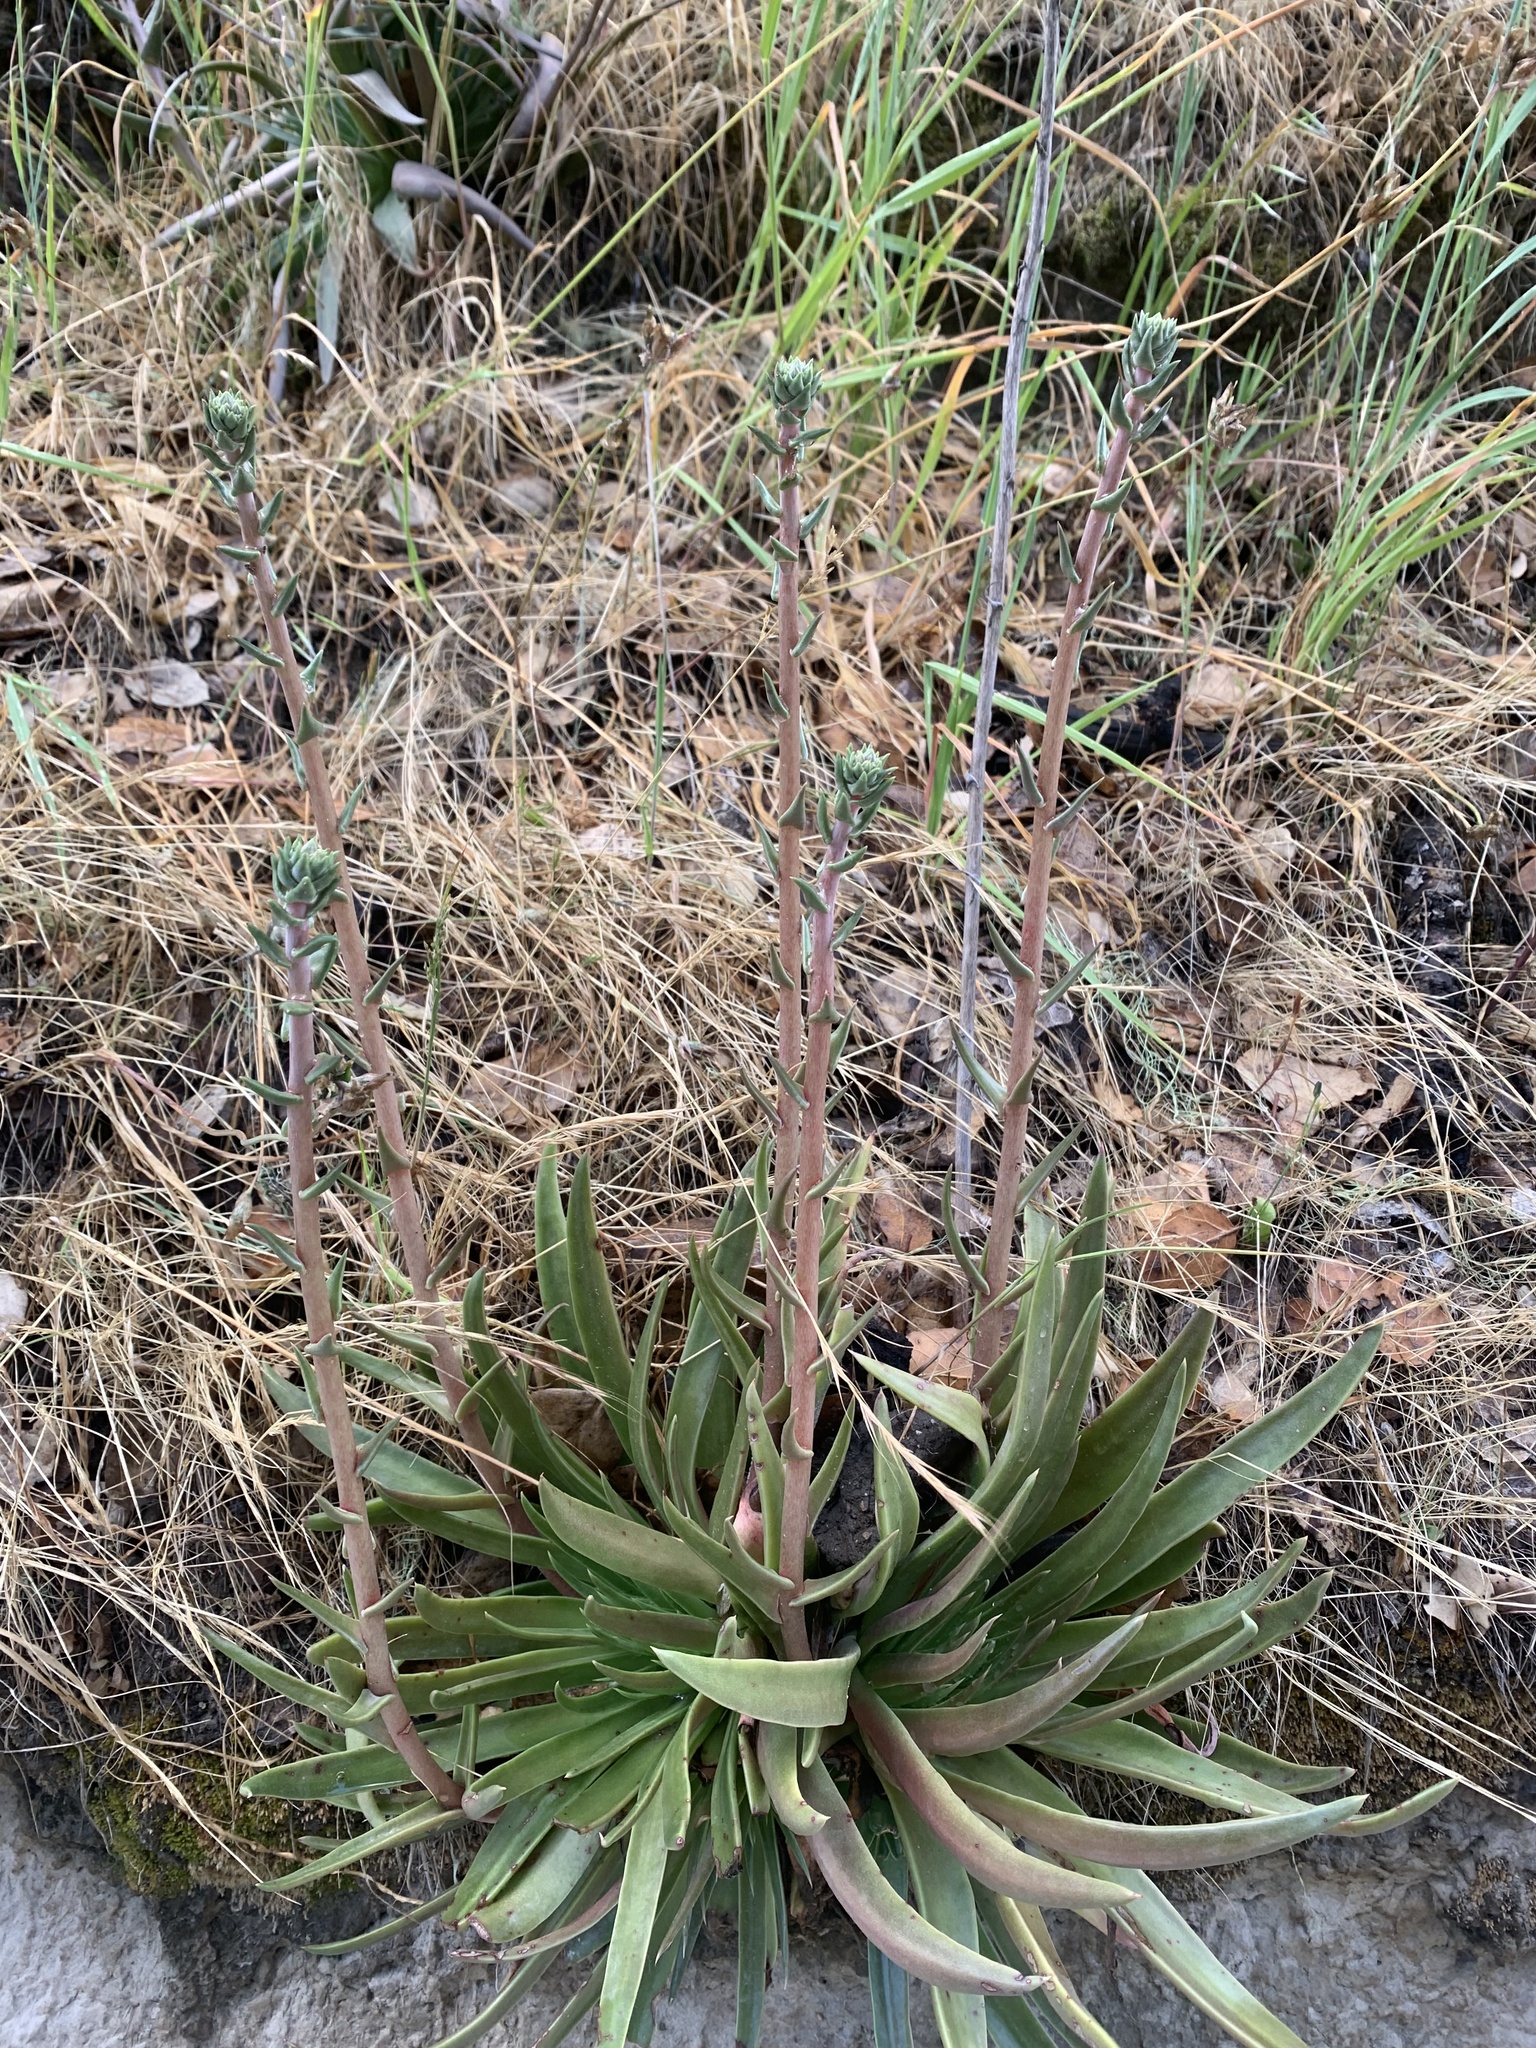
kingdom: Plantae
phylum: Tracheophyta
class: Magnoliopsida
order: Saxifragales
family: Crassulaceae
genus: Dudleya
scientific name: Dudleya lanceolata
